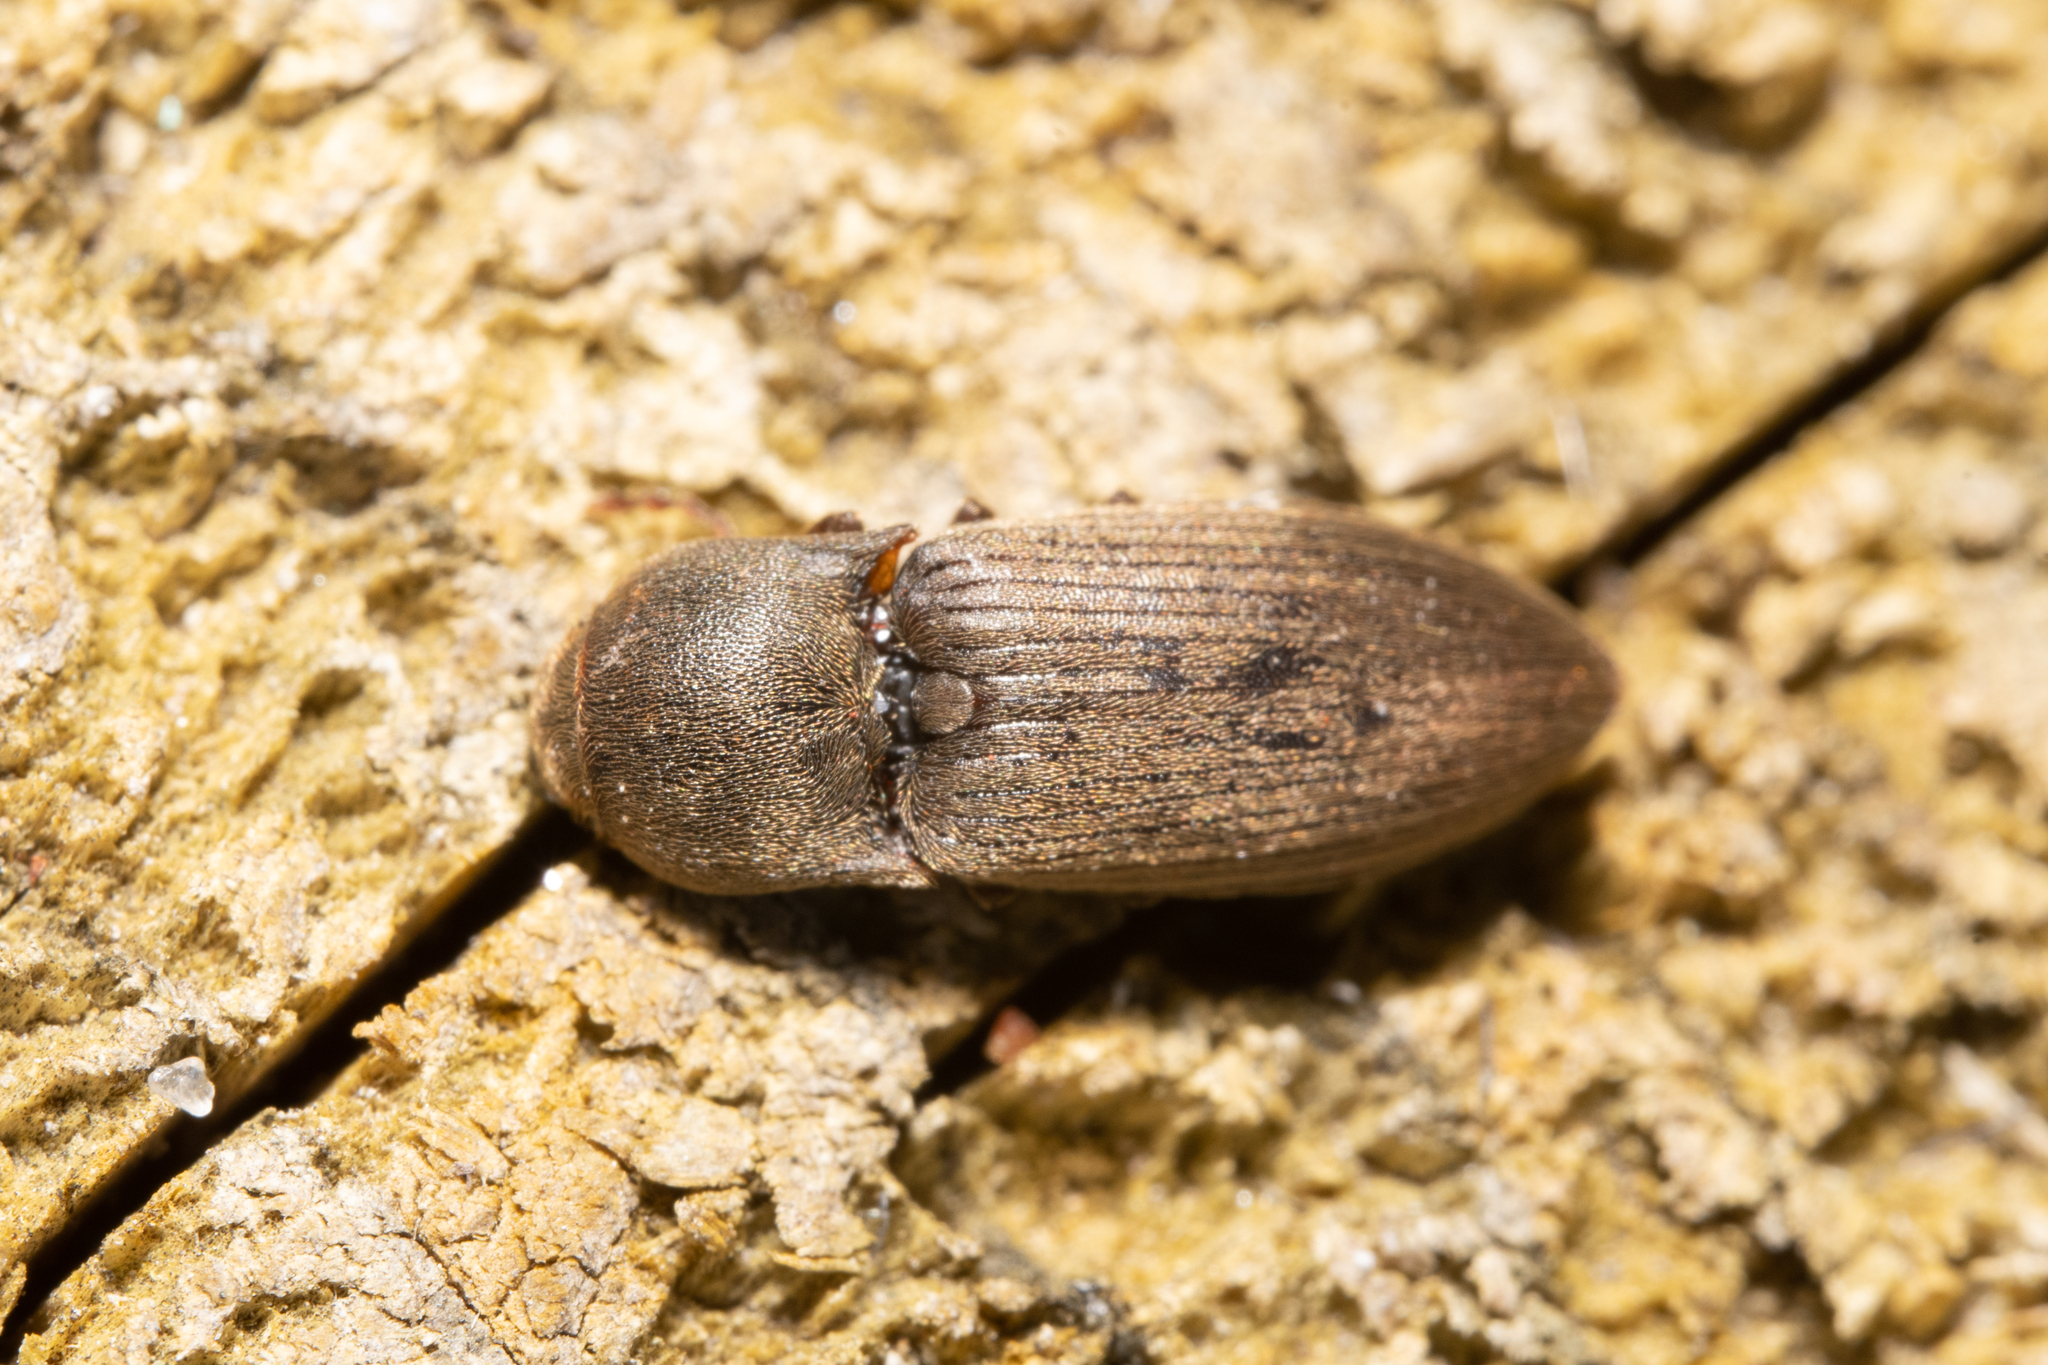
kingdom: Animalia
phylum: Arthropoda
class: Insecta
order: Coleoptera
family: Elateridae
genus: Agriotes
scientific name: Agriotes obscurus
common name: Dusky wireworm
